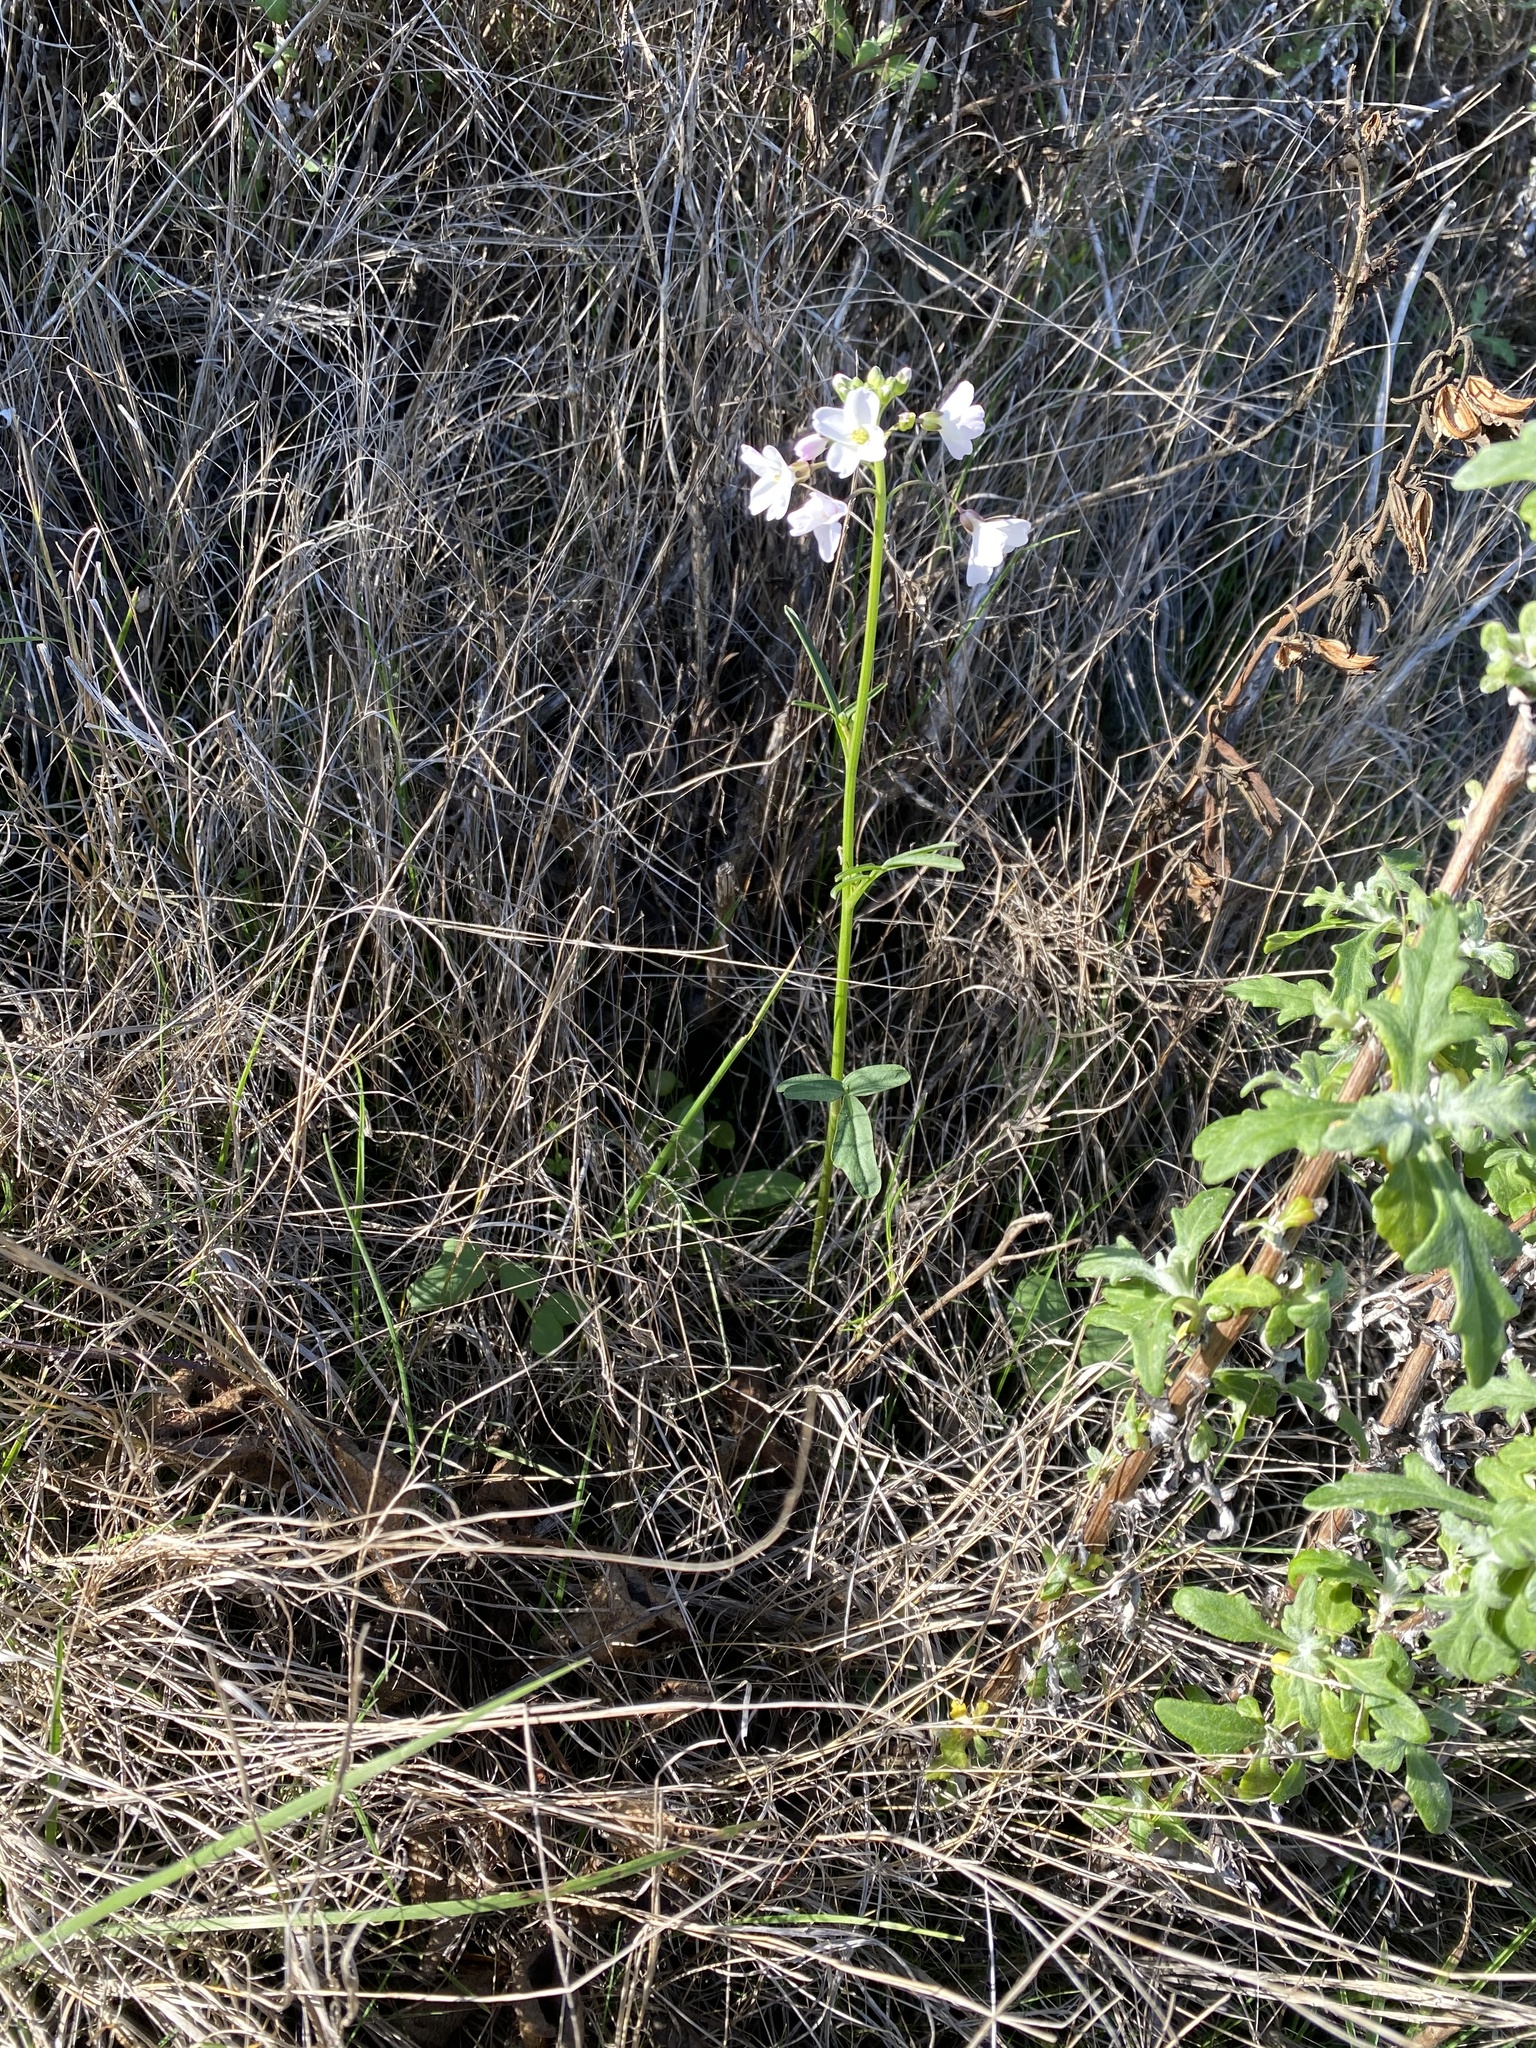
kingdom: Plantae
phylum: Tracheophyta
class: Magnoliopsida
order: Brassicales
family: Brassicaceae
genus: Cardamine
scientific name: Cardamine californica
